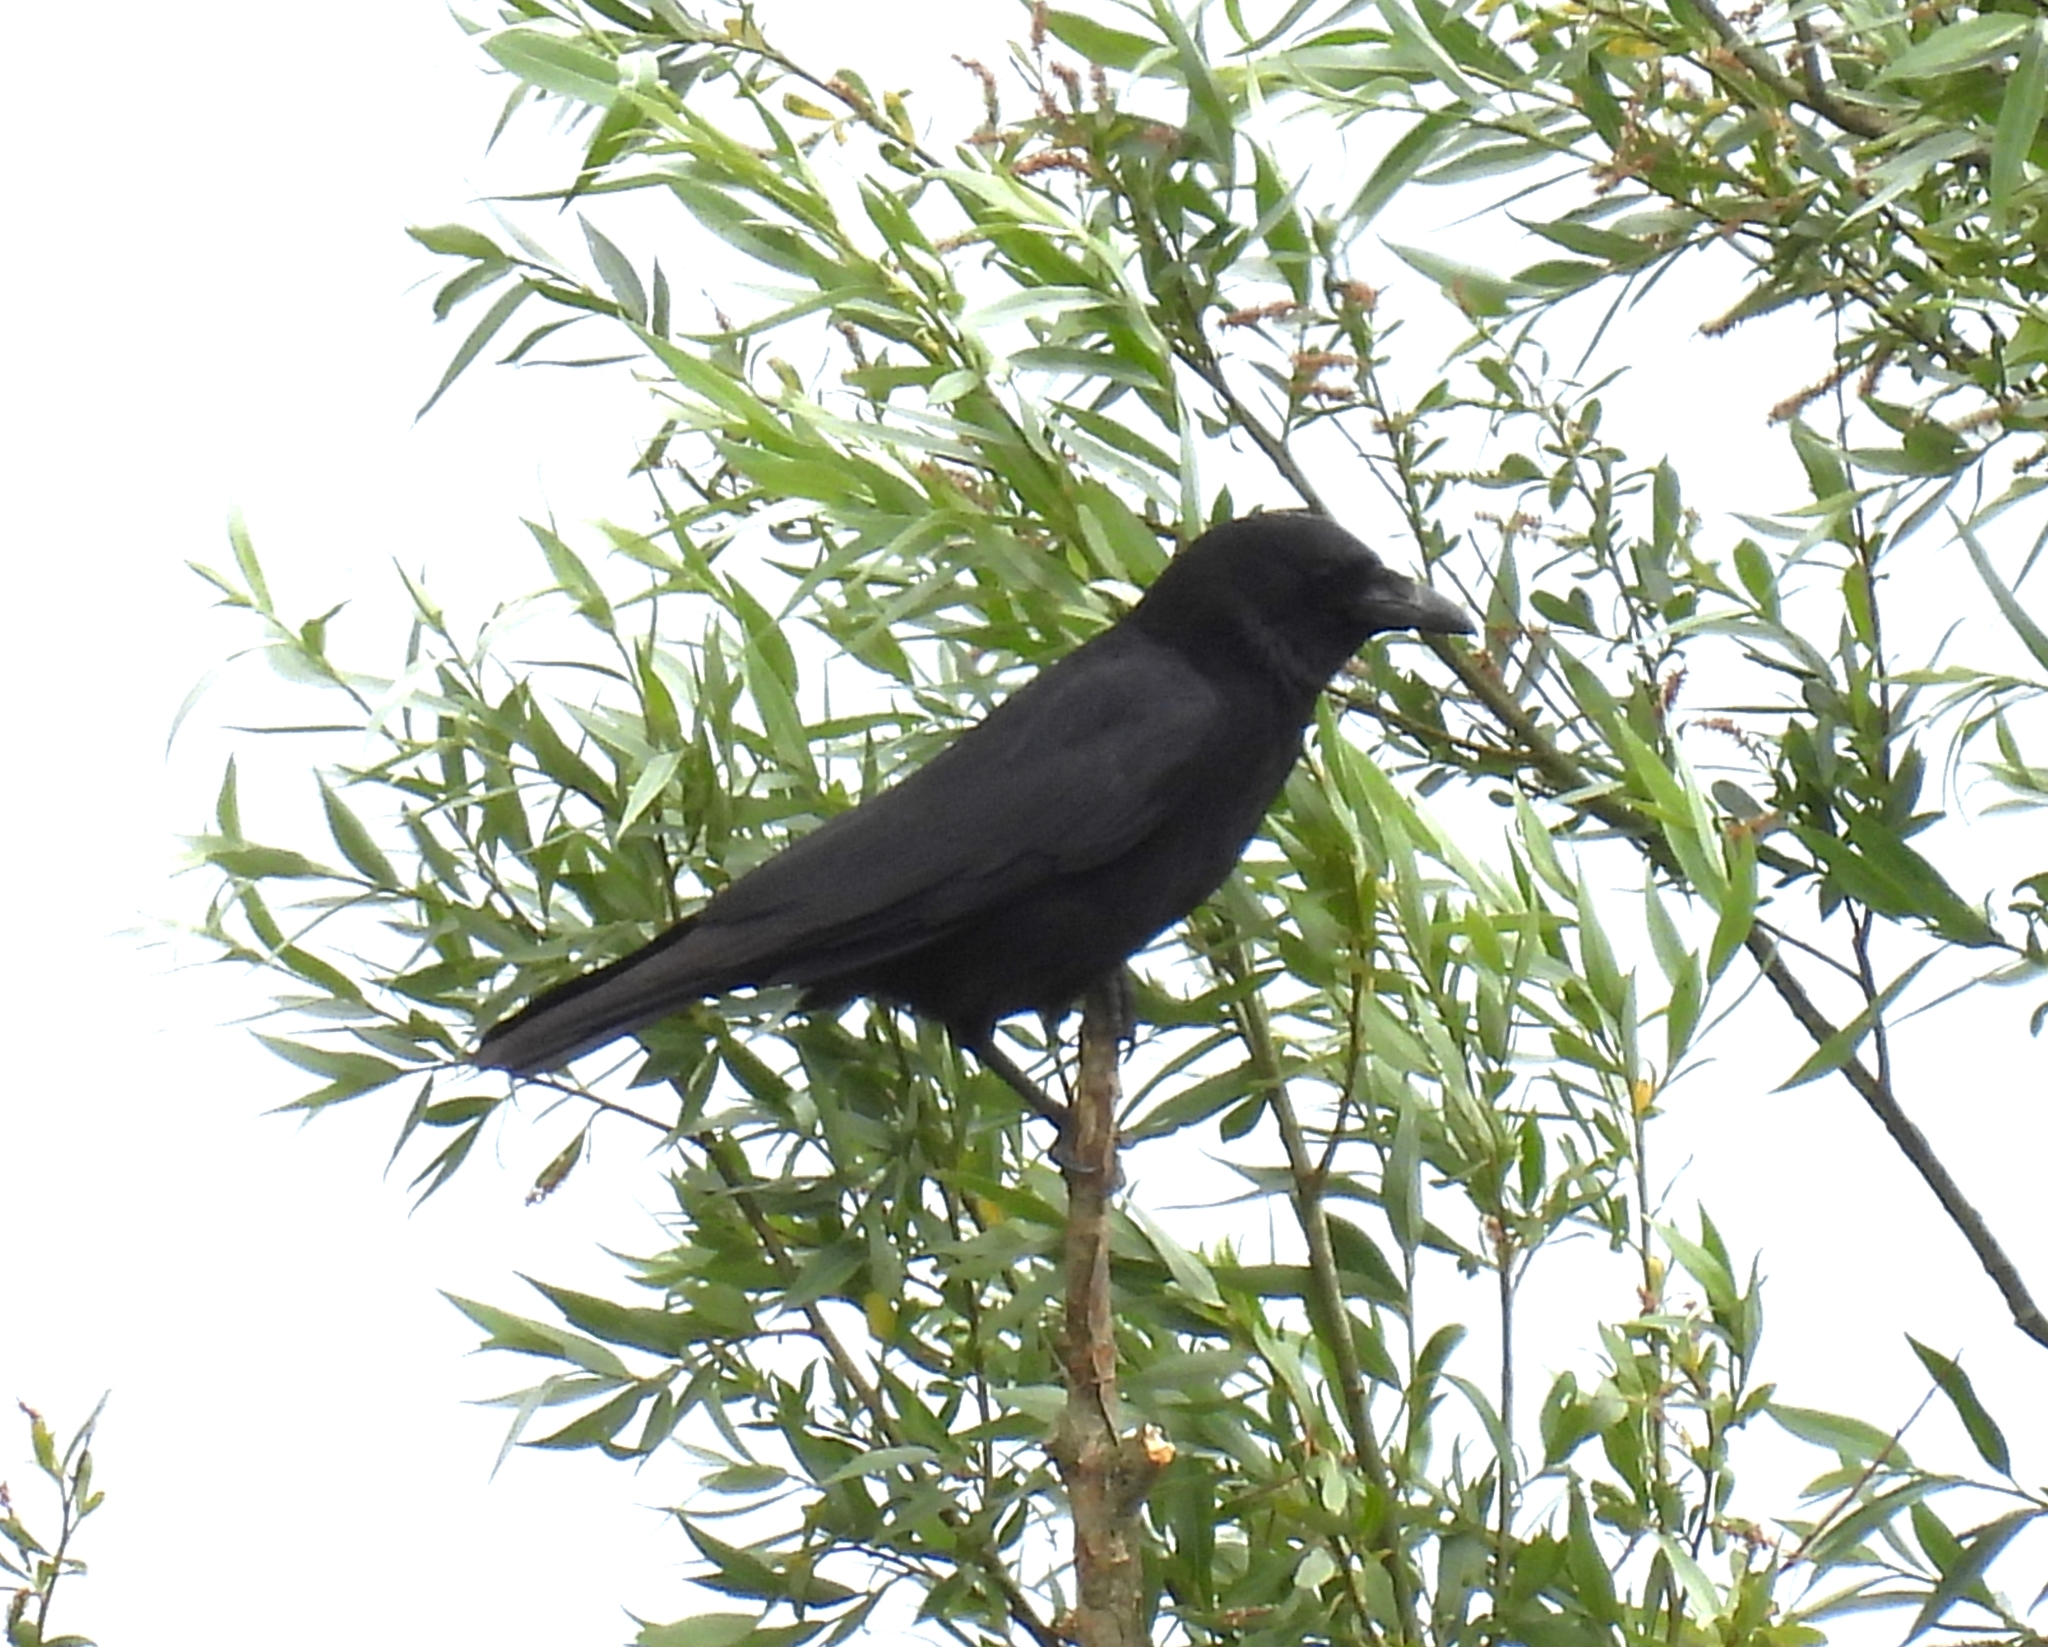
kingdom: Animalia
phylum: Chordata
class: Aves
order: Passeriformes
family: Corvidae
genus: Corvus
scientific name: Corvus corone
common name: Carrion crow
